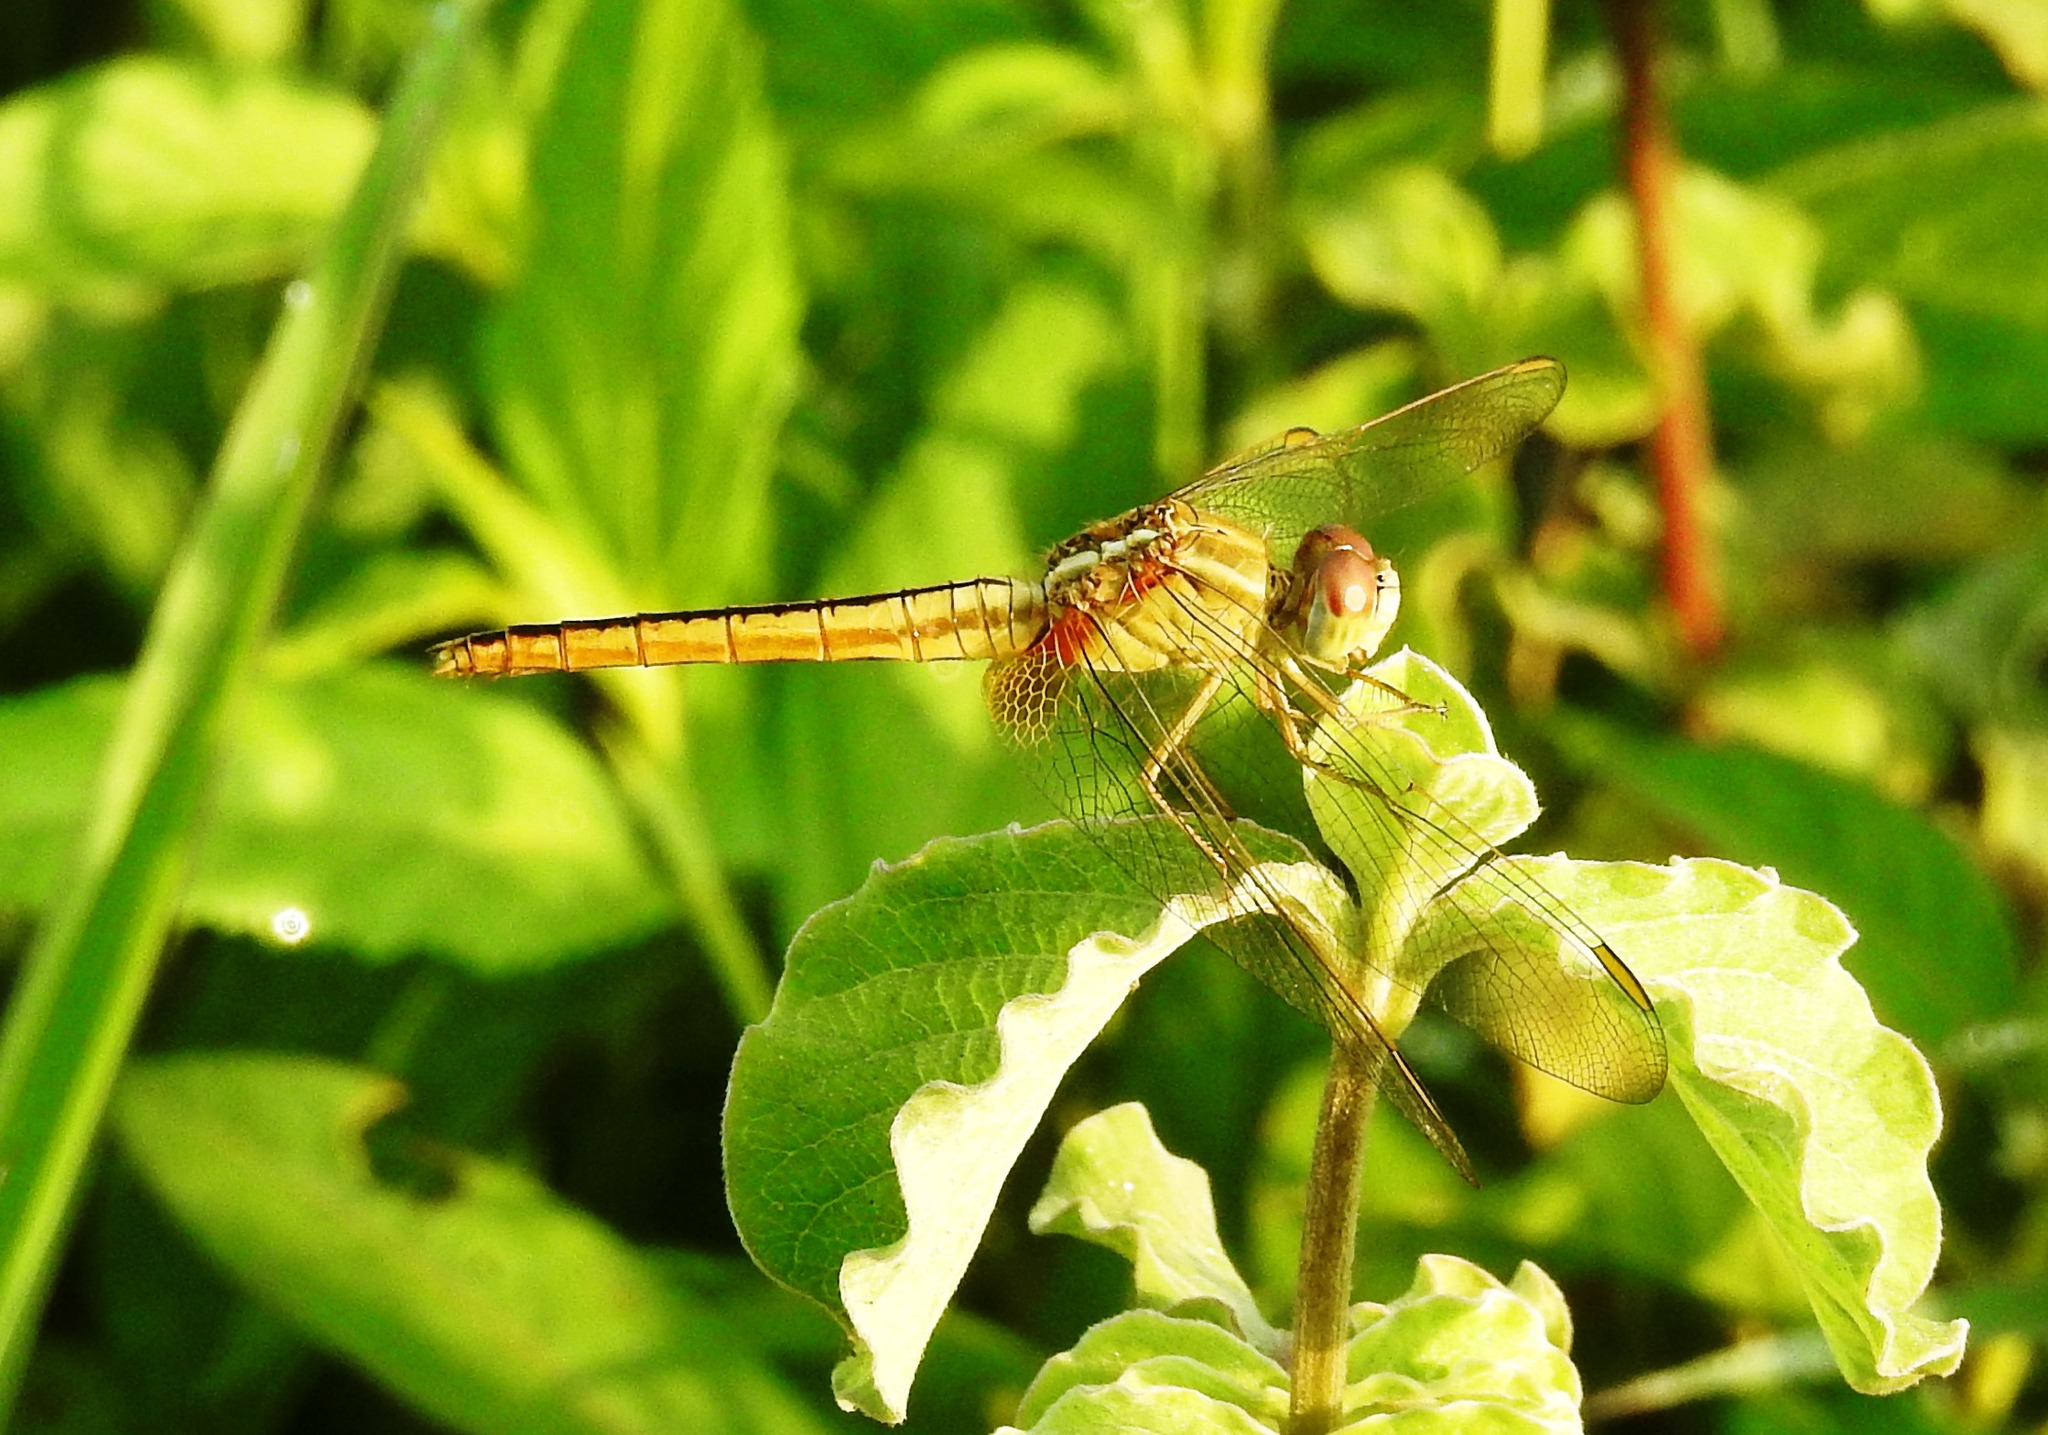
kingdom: Animalia
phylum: Arthropoda
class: Insecta
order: Odonata
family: Libellulidae
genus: Crocothemis
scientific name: Crocothemis servilia
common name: Scarlet skimmer
